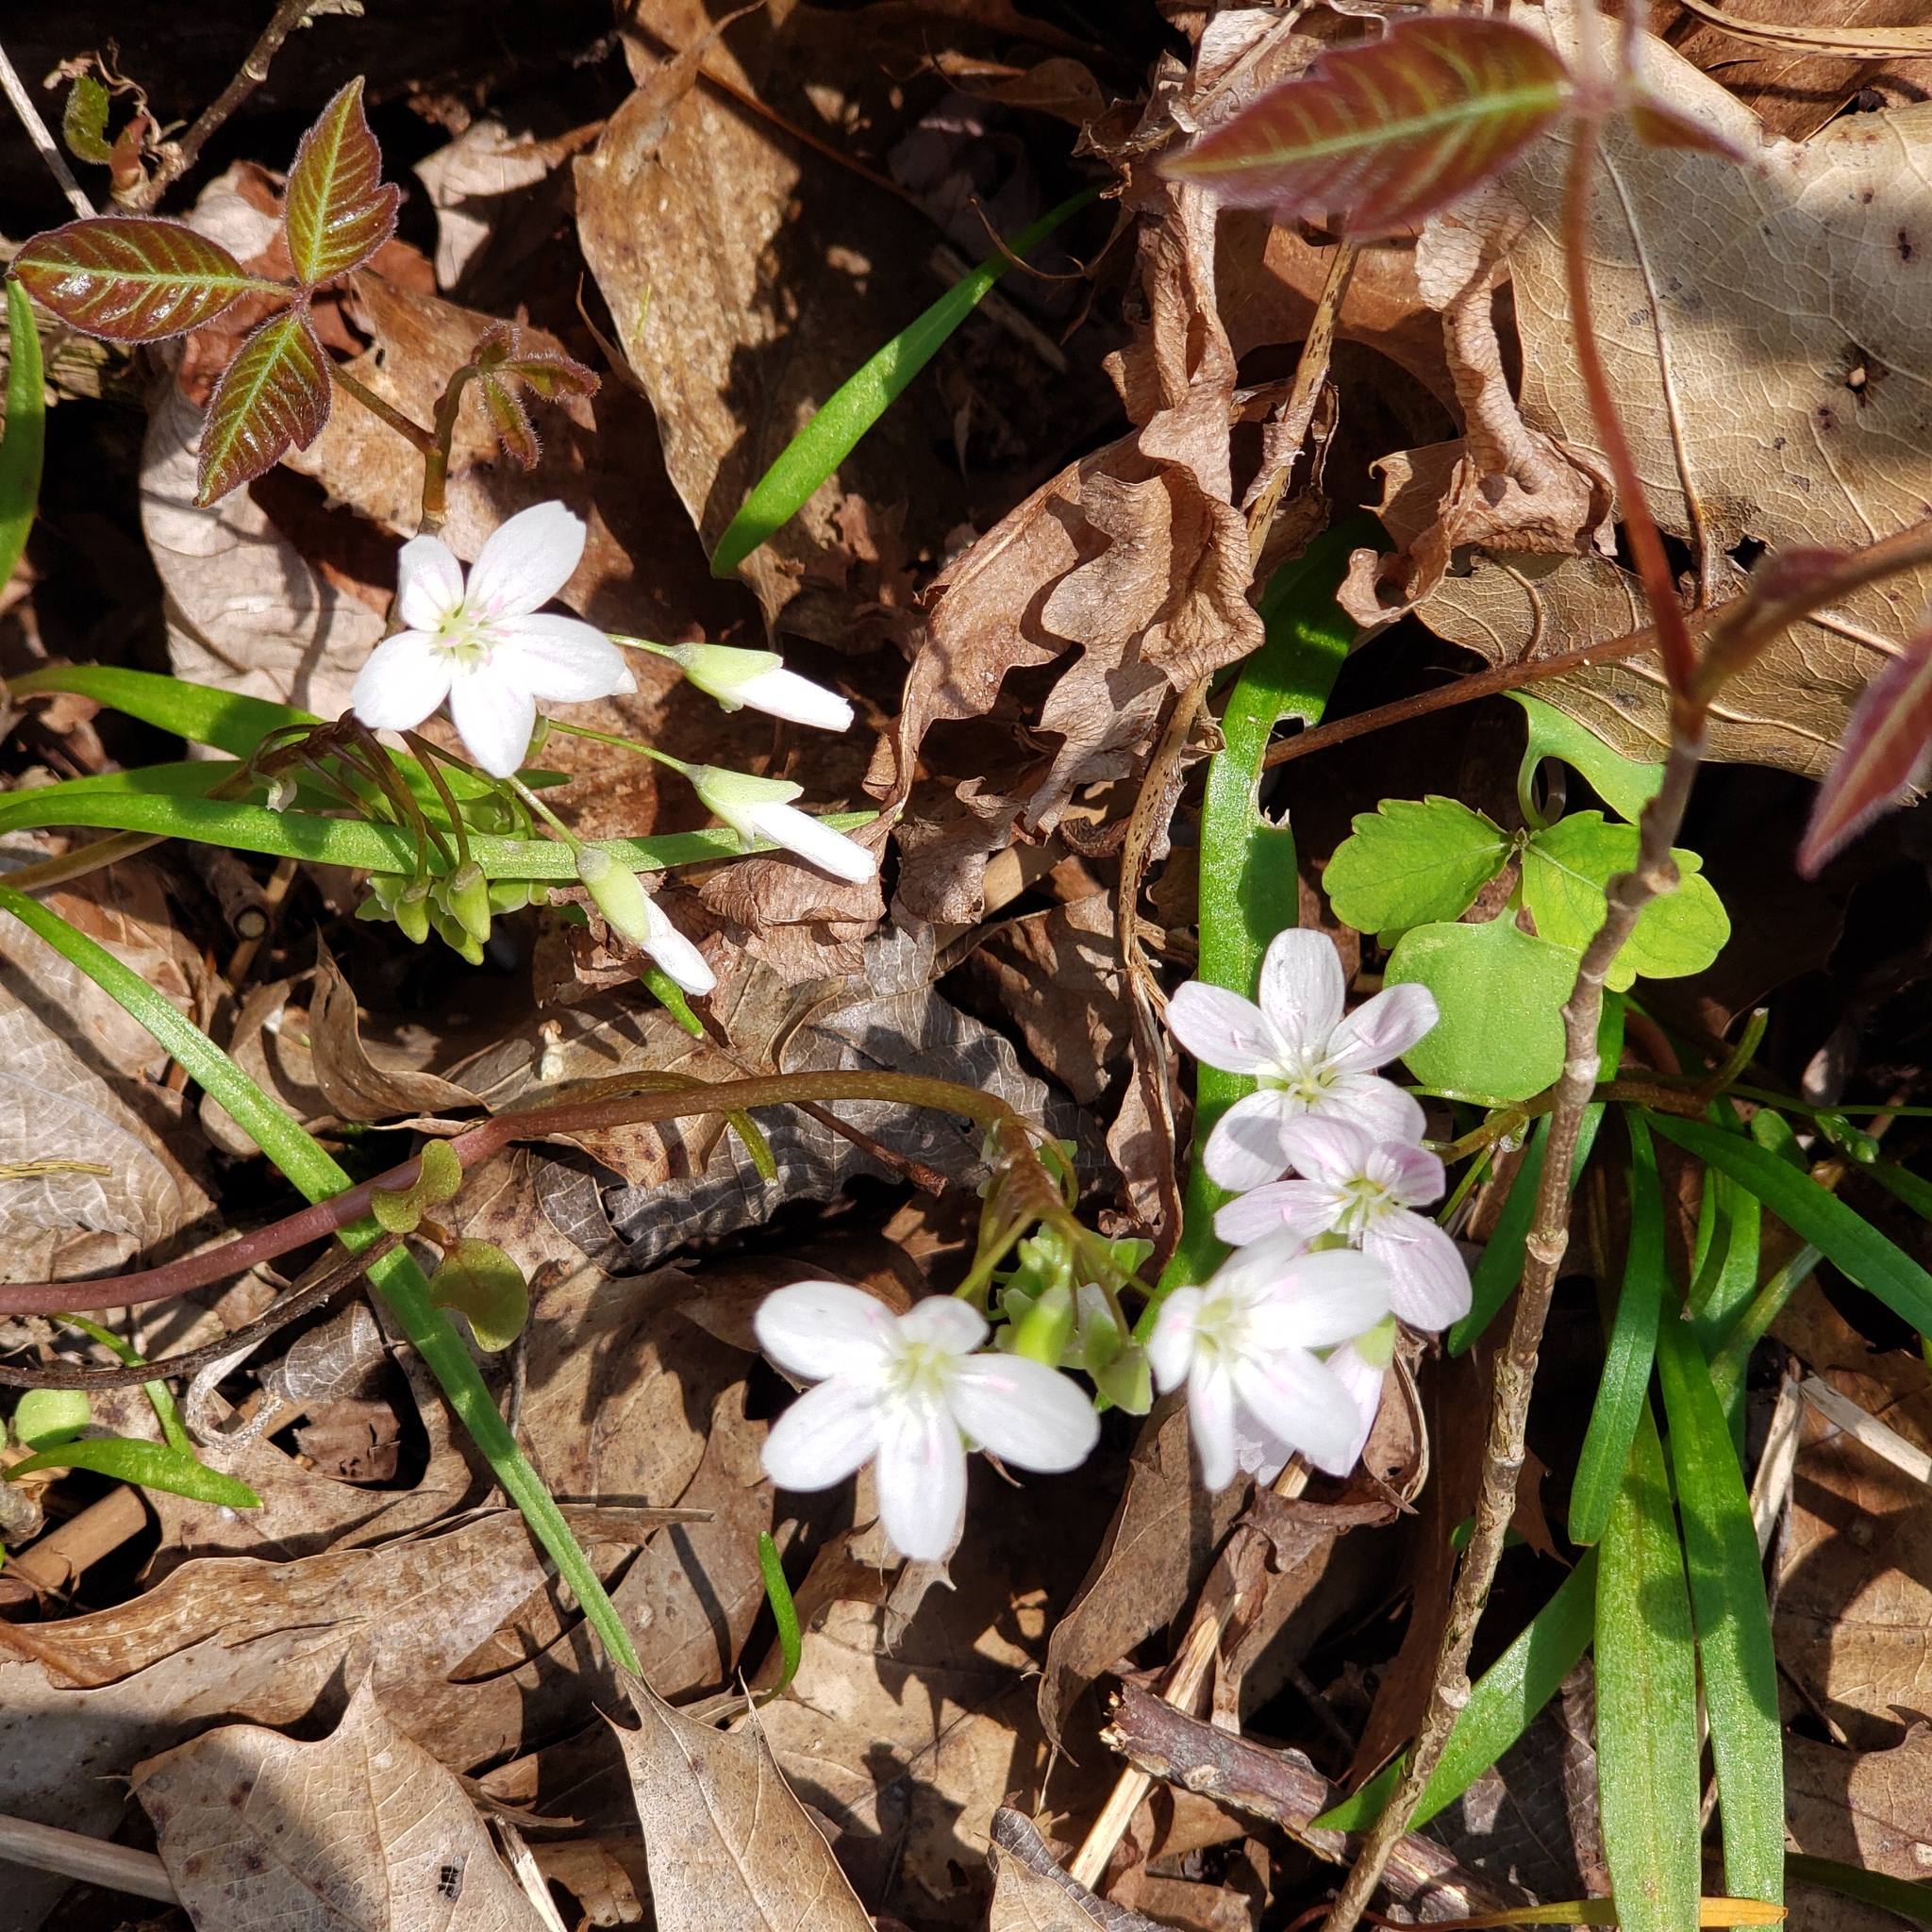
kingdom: Plantae
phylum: Tracheophyta
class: Magnoliopsida
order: Caryophyllales
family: Montiaceae
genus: Claytonia
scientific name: Claytonia virginica
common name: Virginia springbeauty
